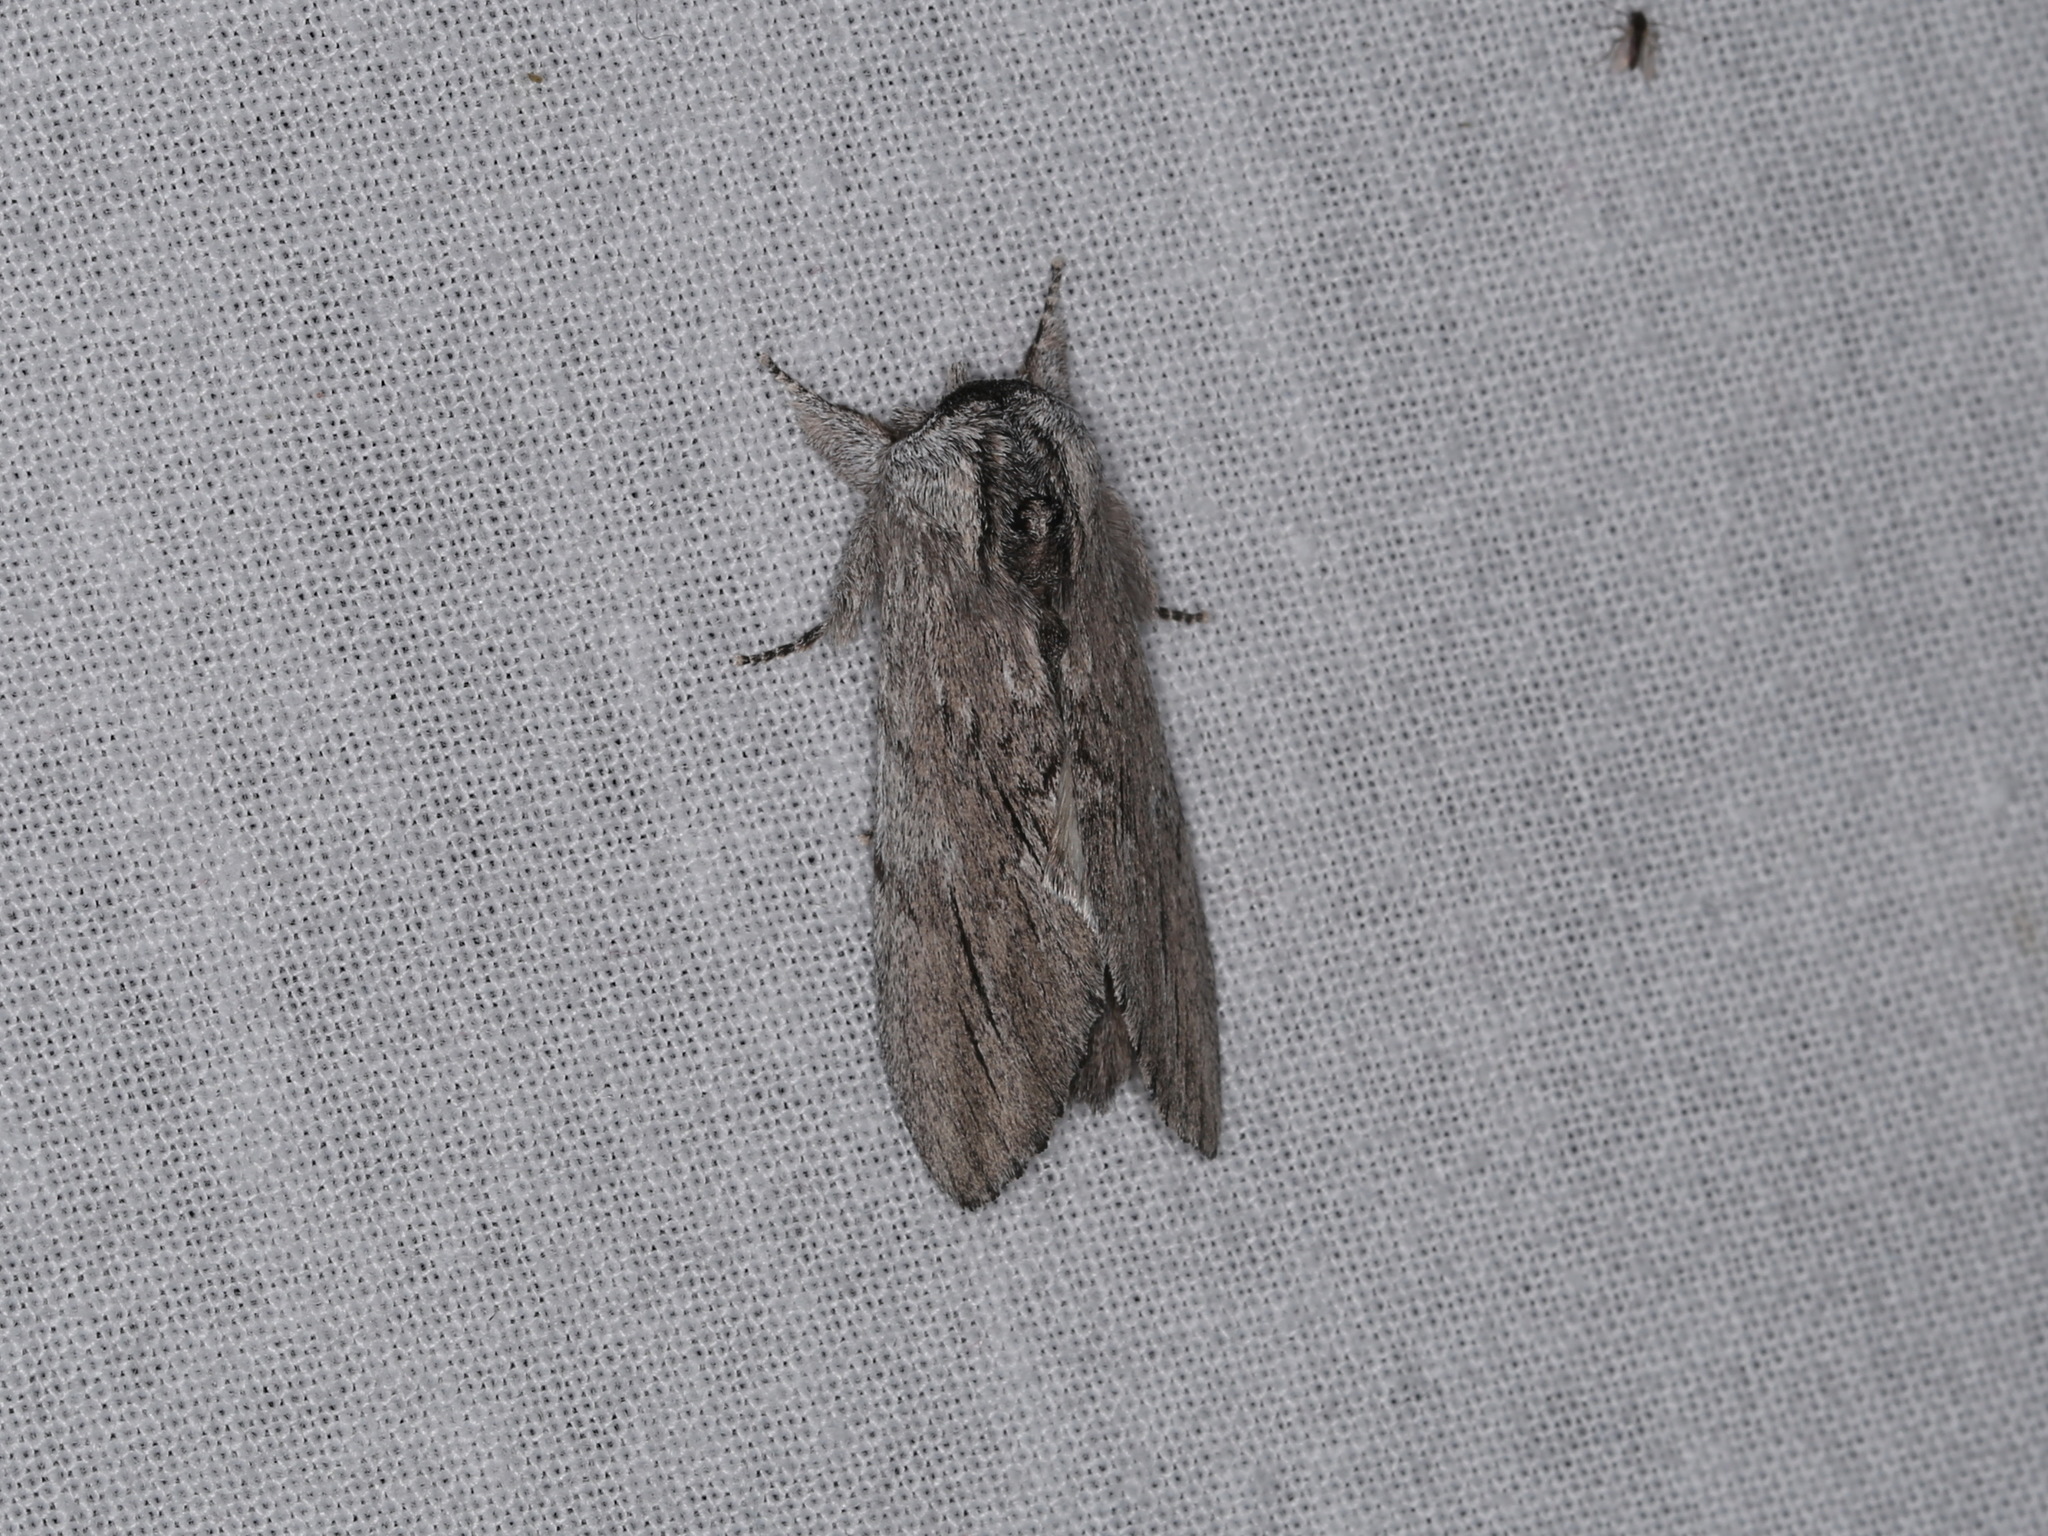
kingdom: Animalia
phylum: Arthropoda
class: Insecta
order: Lepidoptera
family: Notodontidae
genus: Destolmia
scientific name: Destolmia lineata
